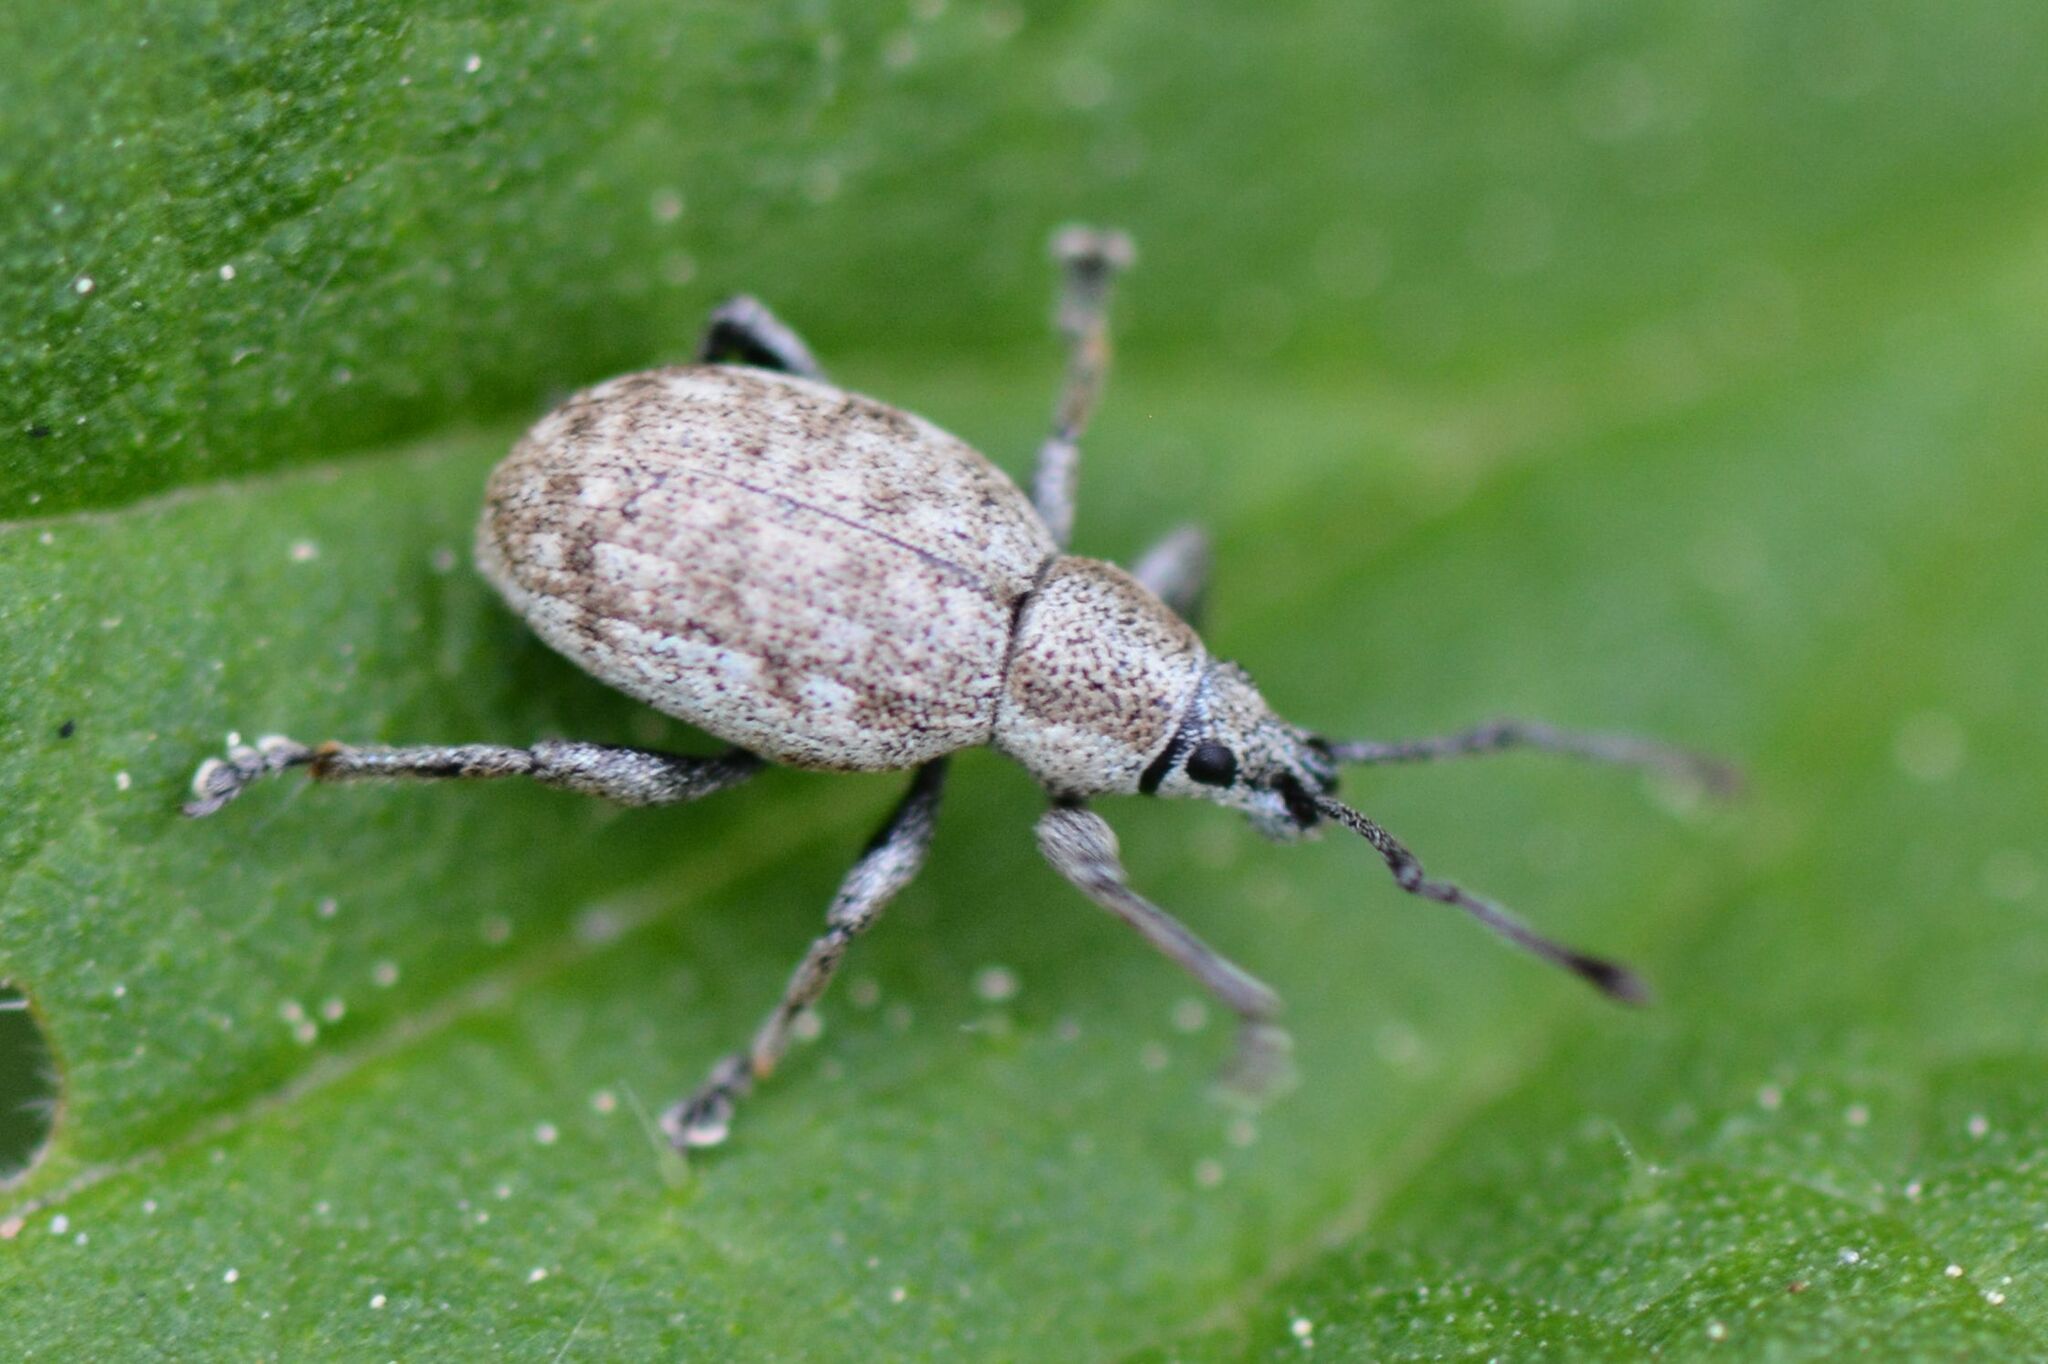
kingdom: Animalia
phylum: Arthropoda
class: Insecta
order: Coleoptera
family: Curculionidae
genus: Peritelus
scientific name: Peritelus sphaeroides
